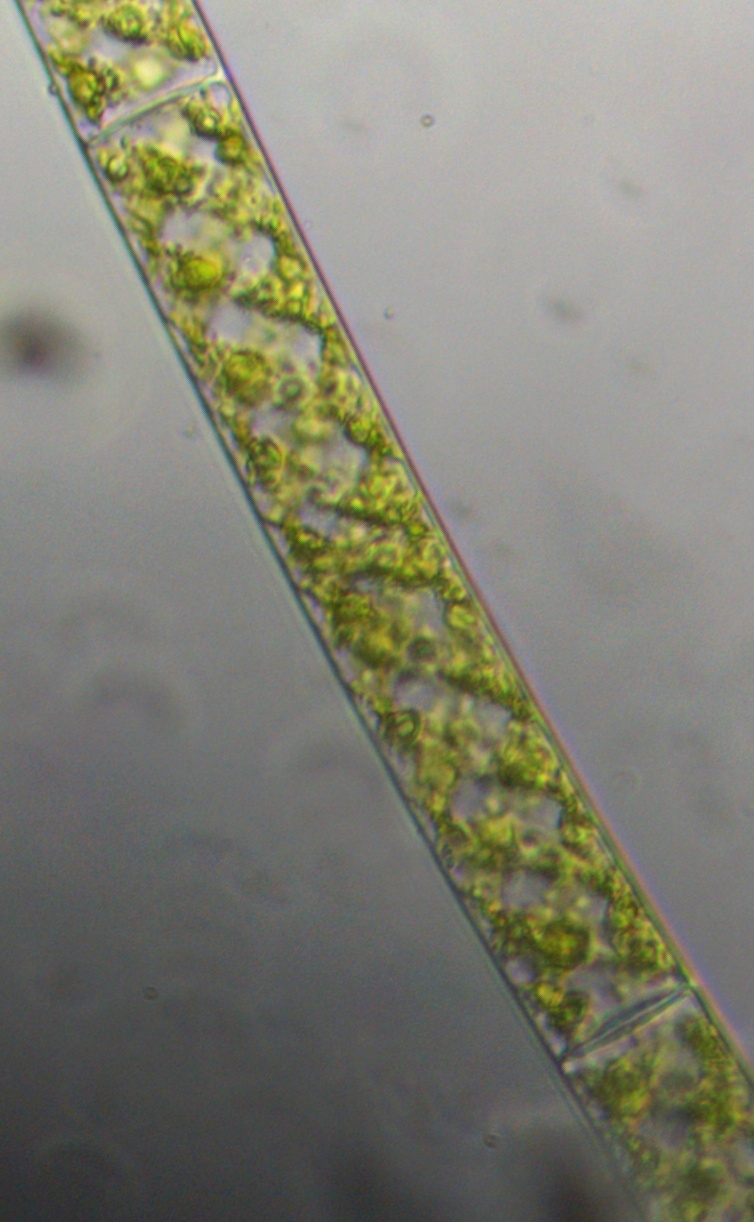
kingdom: Plantae
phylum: Charophyta
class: Zygnematophyceae
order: Zygnematales
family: Zygnemataceae
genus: Spirogyra
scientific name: Spirogyra
